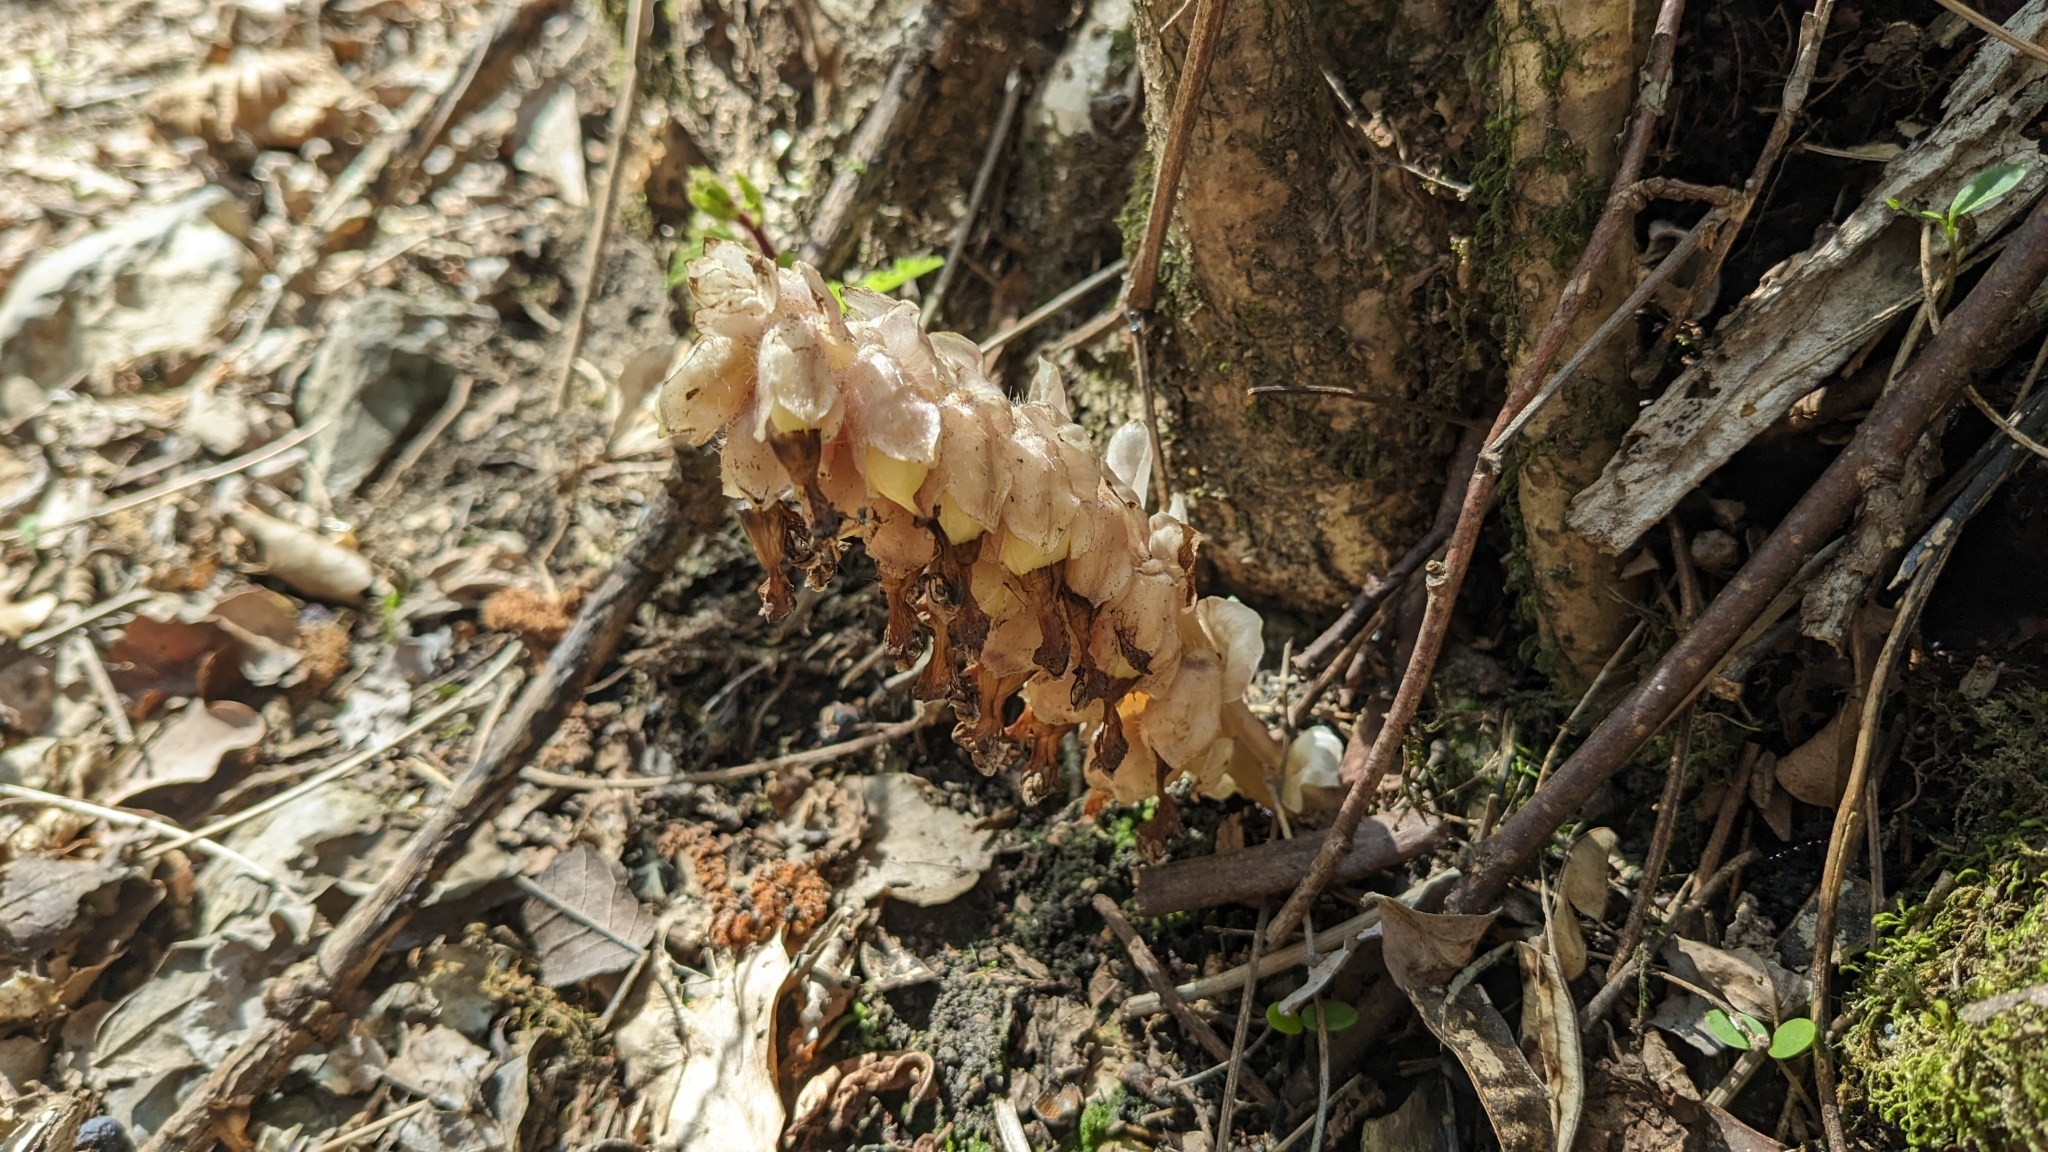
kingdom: Plantae
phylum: Tracheophyta
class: Magnoliopsida
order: Lamiales
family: Orobanchaceae
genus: Lathraea
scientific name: Lathraea squamaria
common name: Toothwort
